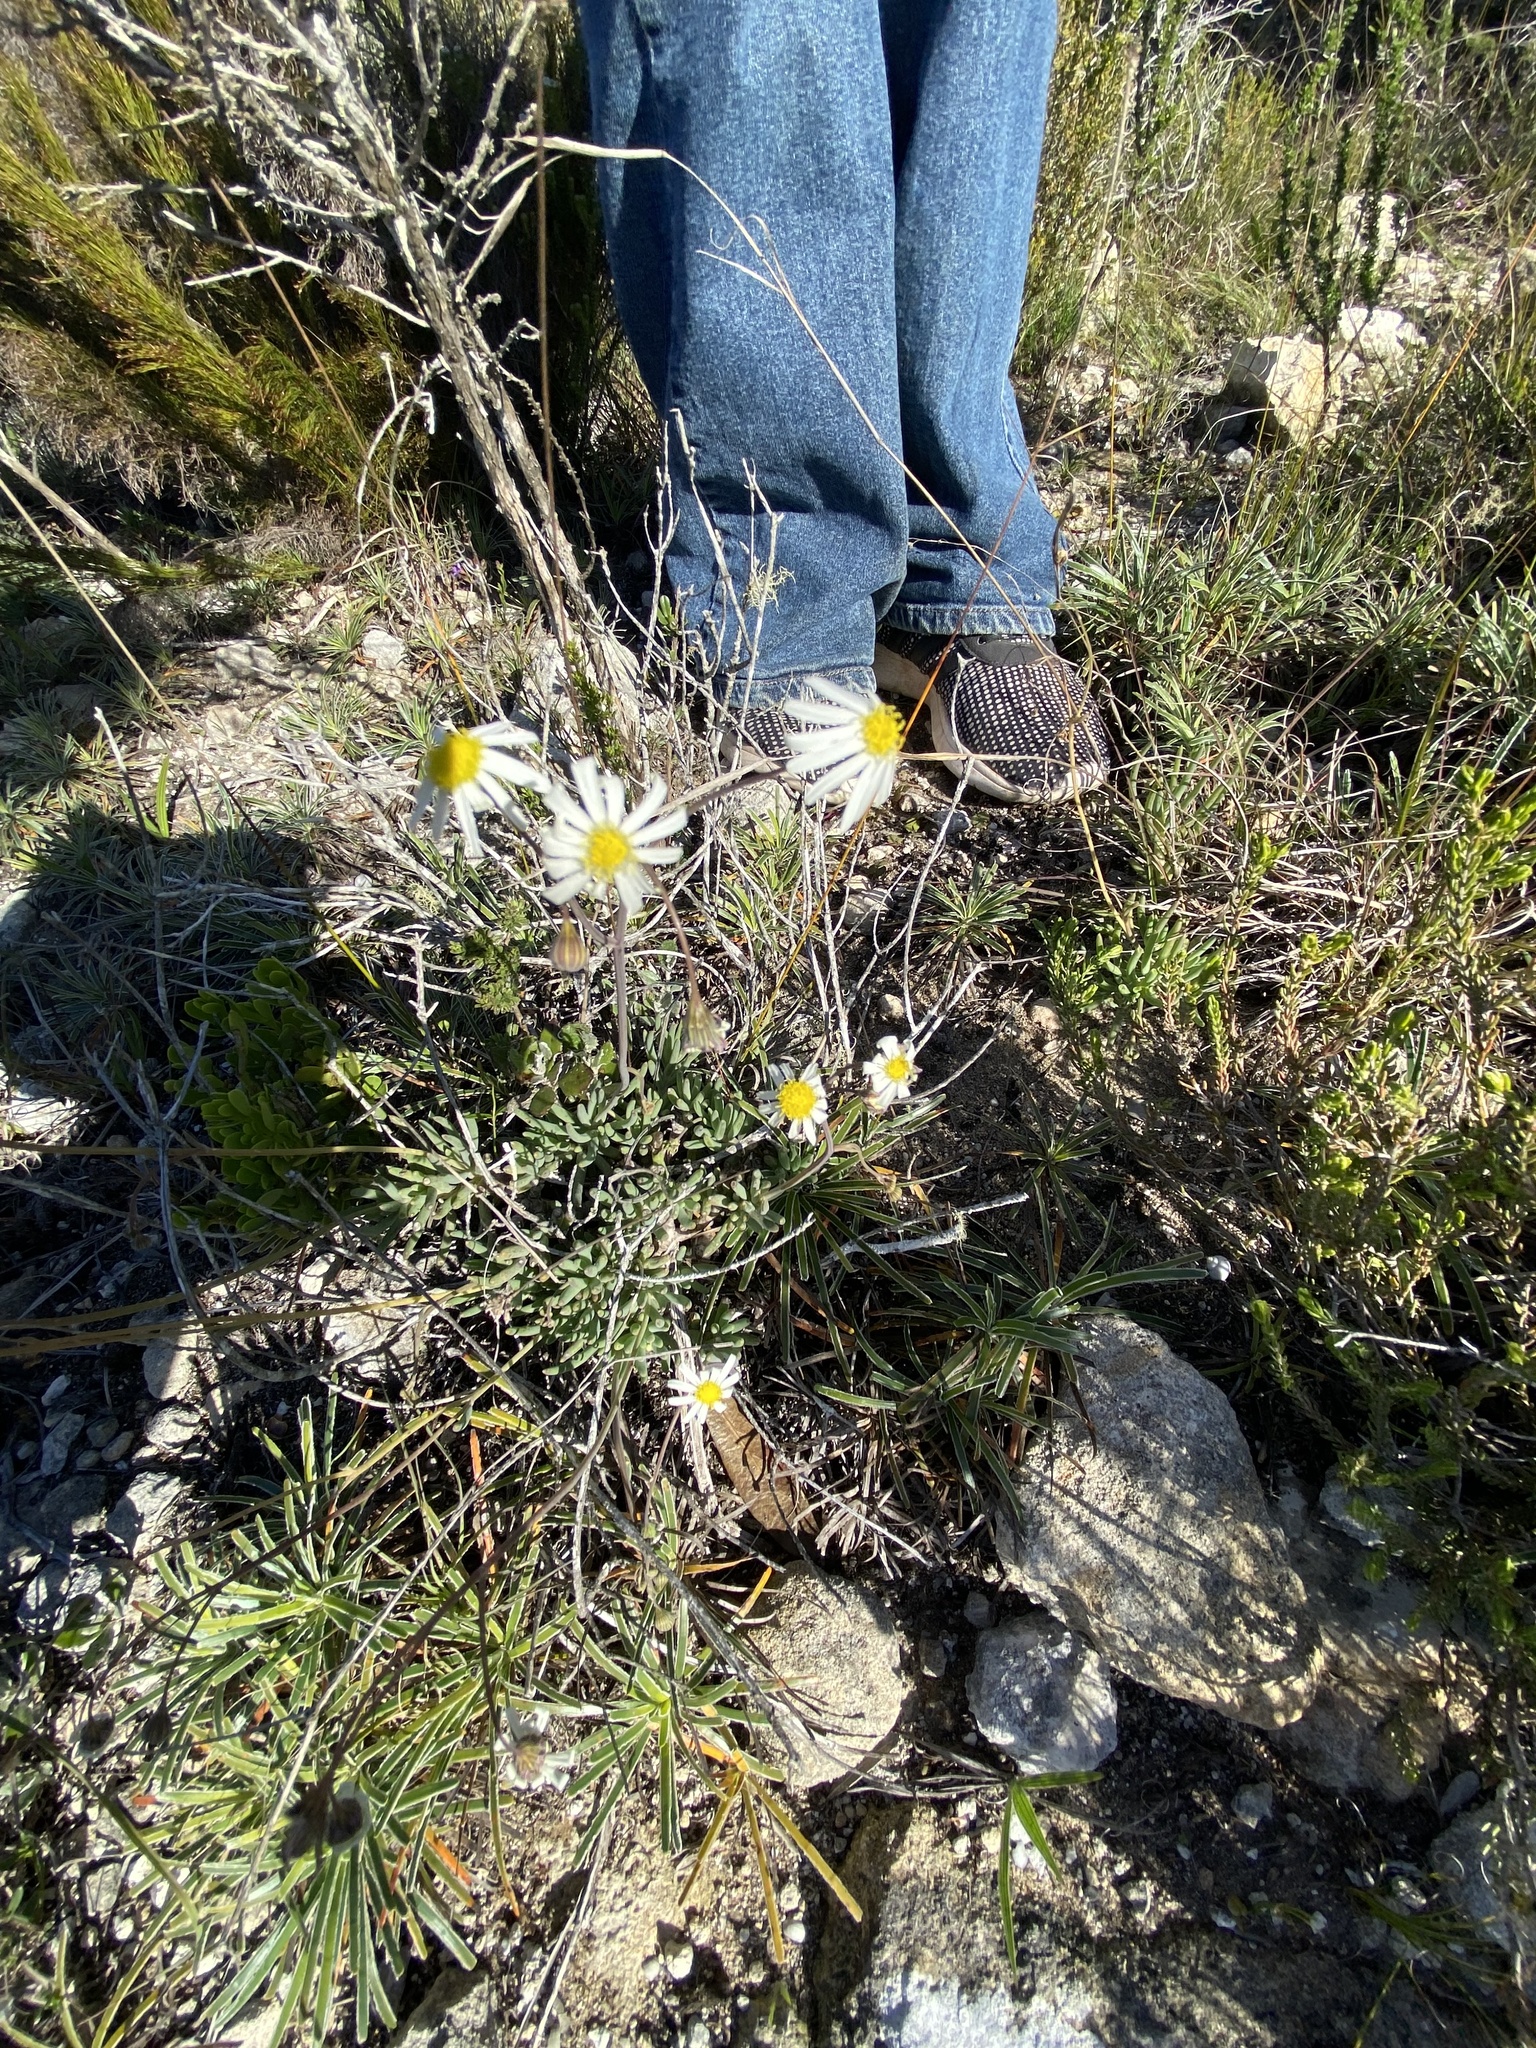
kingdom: Plantae
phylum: Tracheophyta
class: Magnoliopsida
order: Asterales
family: Asteraceae
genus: Crassothonna
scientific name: Crassothonna alba
